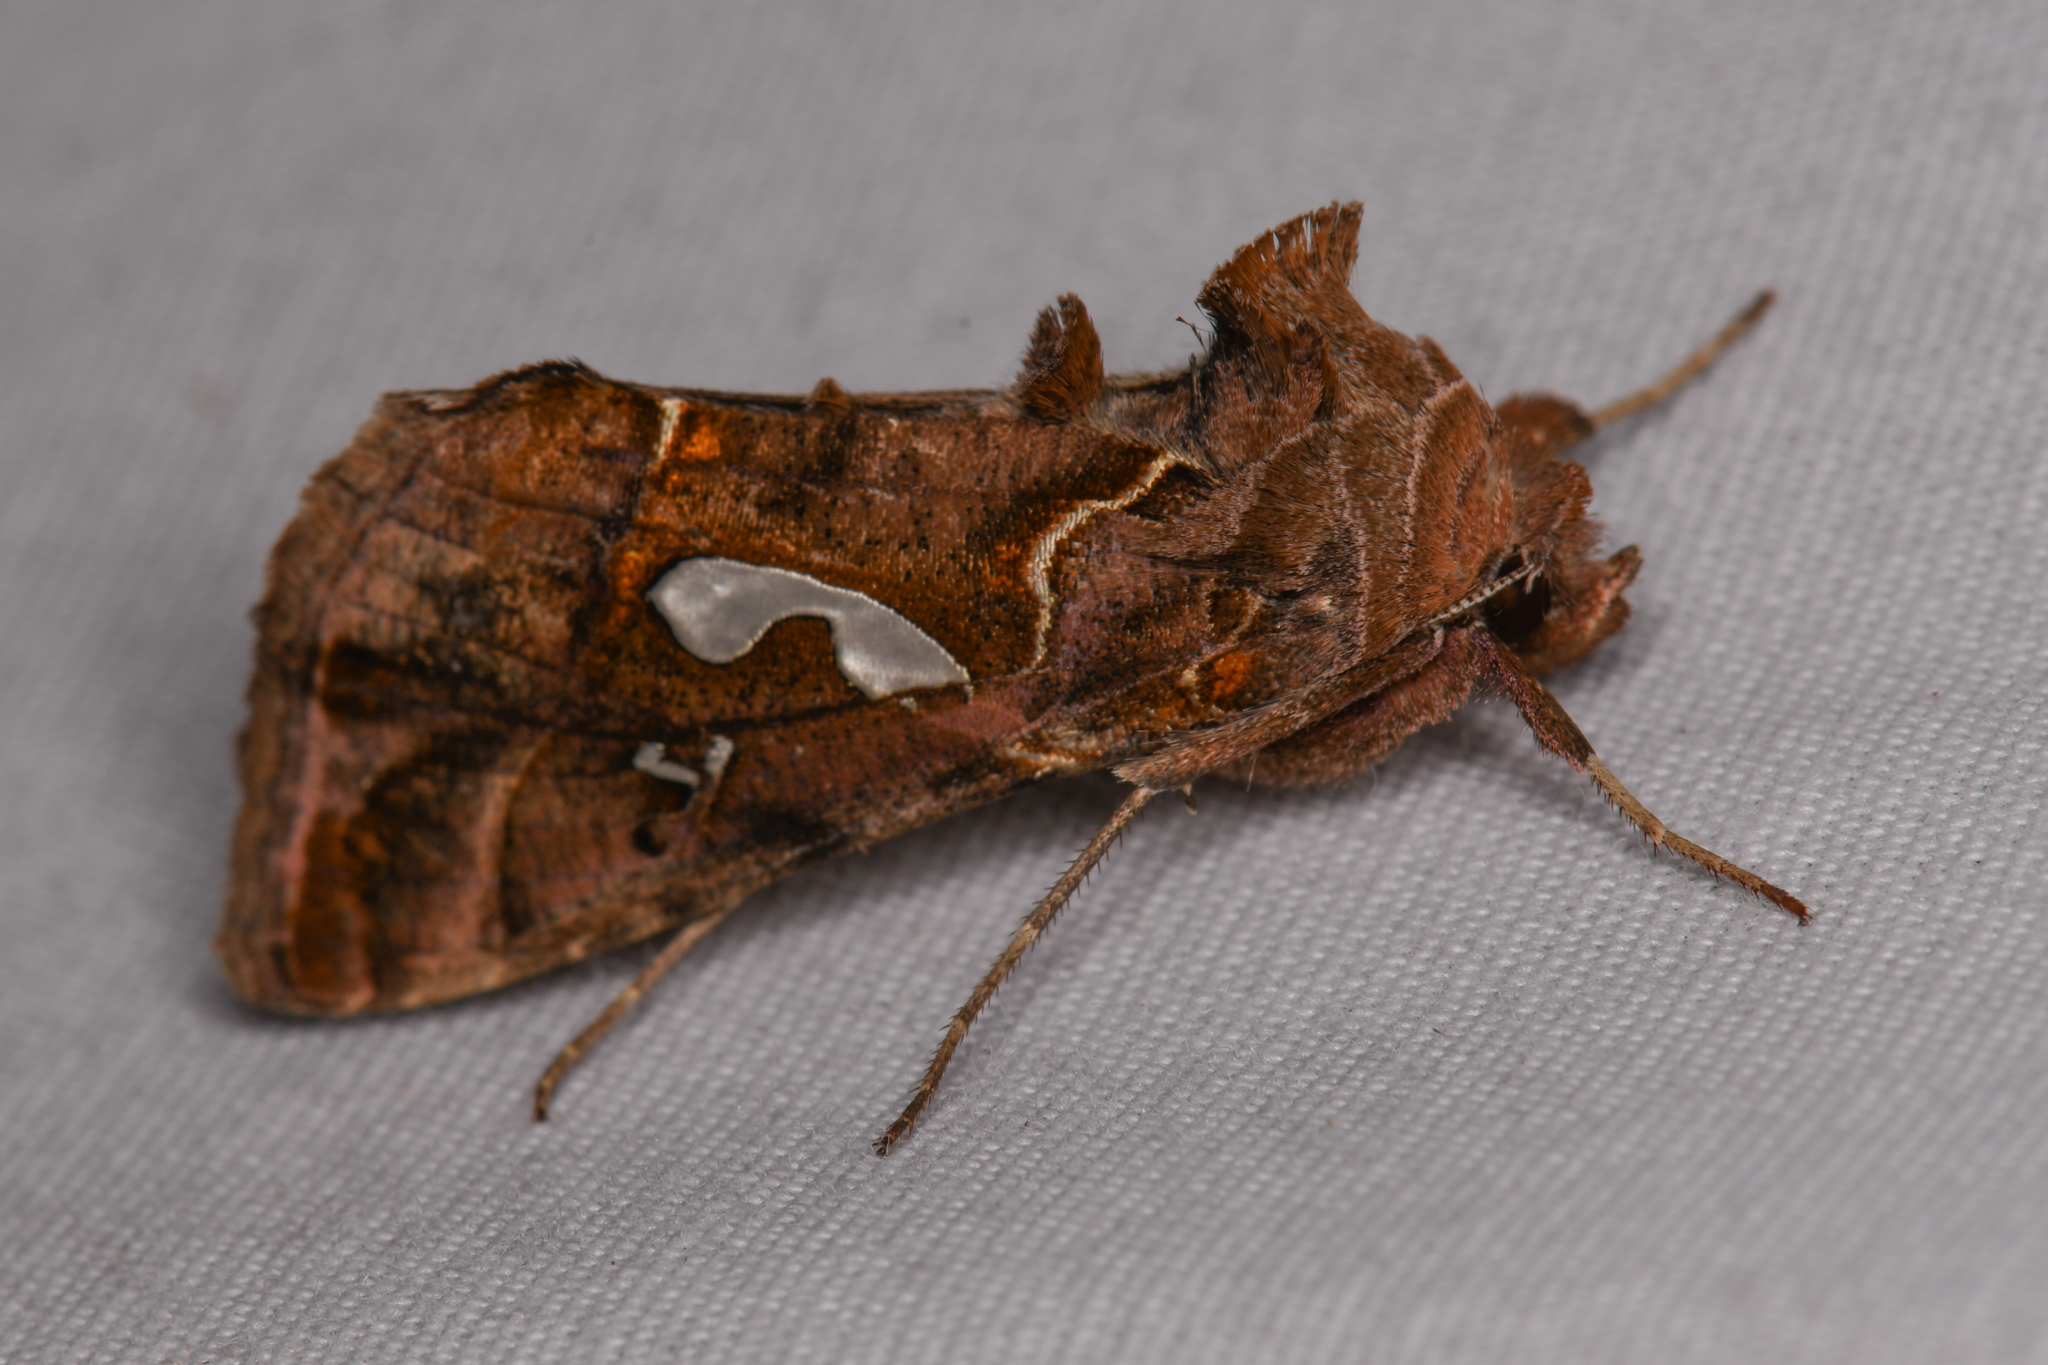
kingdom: Animalia
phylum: Arthropoda
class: Insecta
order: Lepidoptera
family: Noctuidae
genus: Megalographa
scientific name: Megalographa biloba
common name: Cutworm
